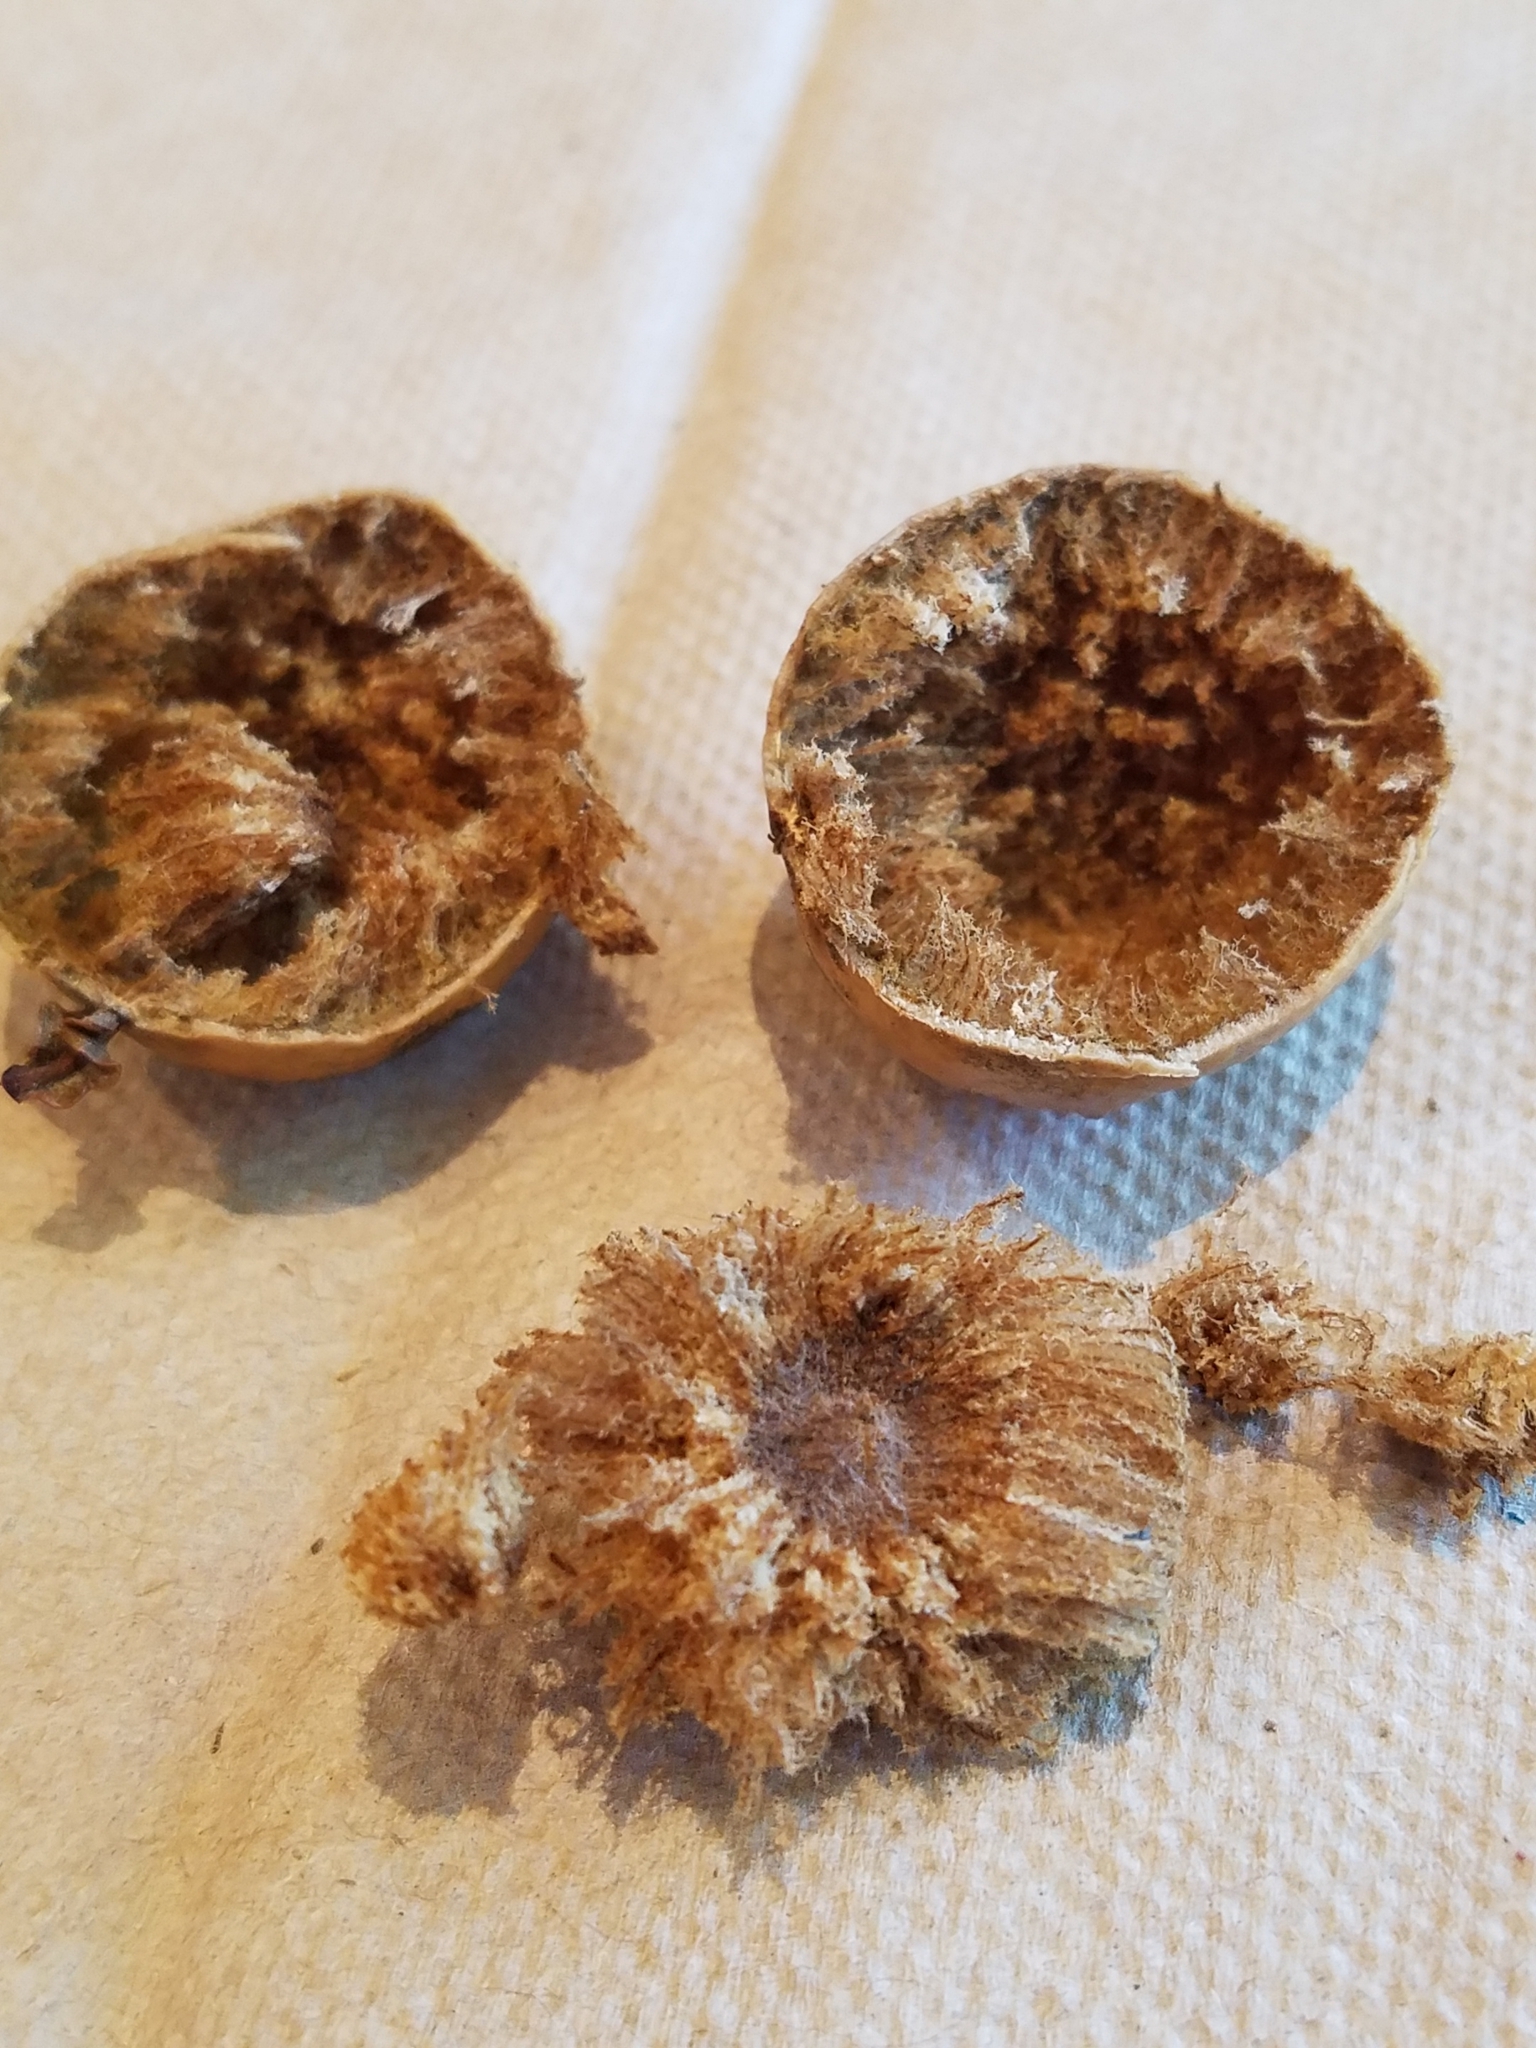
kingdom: Animalia
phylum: Arthropoda
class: Insecta
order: Hymenoptera
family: Cynipidae
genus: Amphibolips
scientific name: Amphibolips
